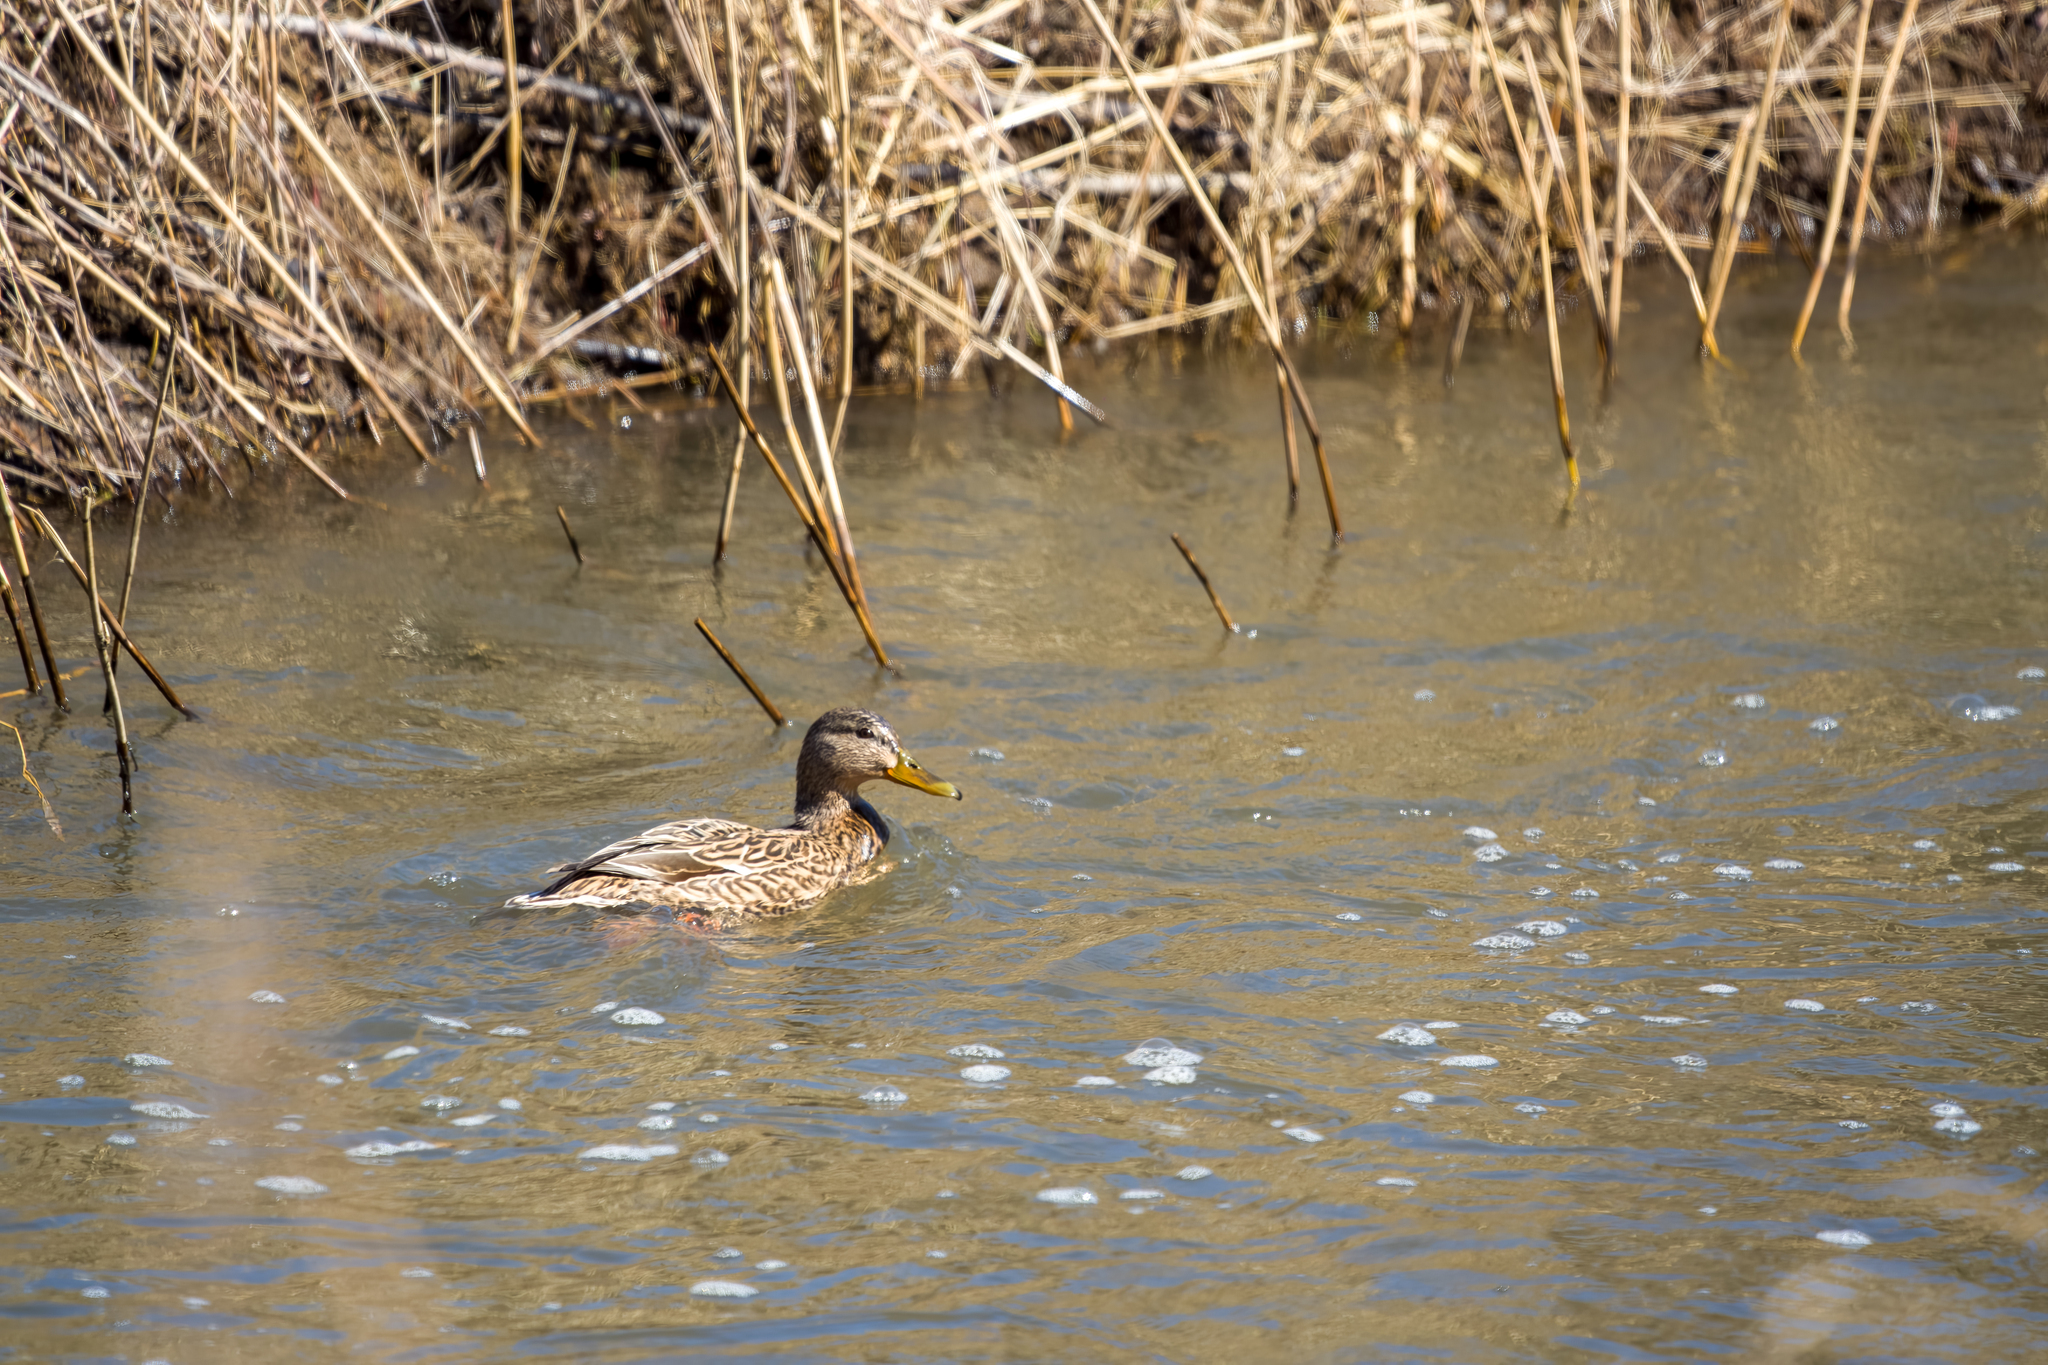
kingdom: Animalia
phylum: Chordata
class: Aves
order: Anseriformes
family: Anatidae
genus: Anas
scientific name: Anas platyrhynchos
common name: Mallard
